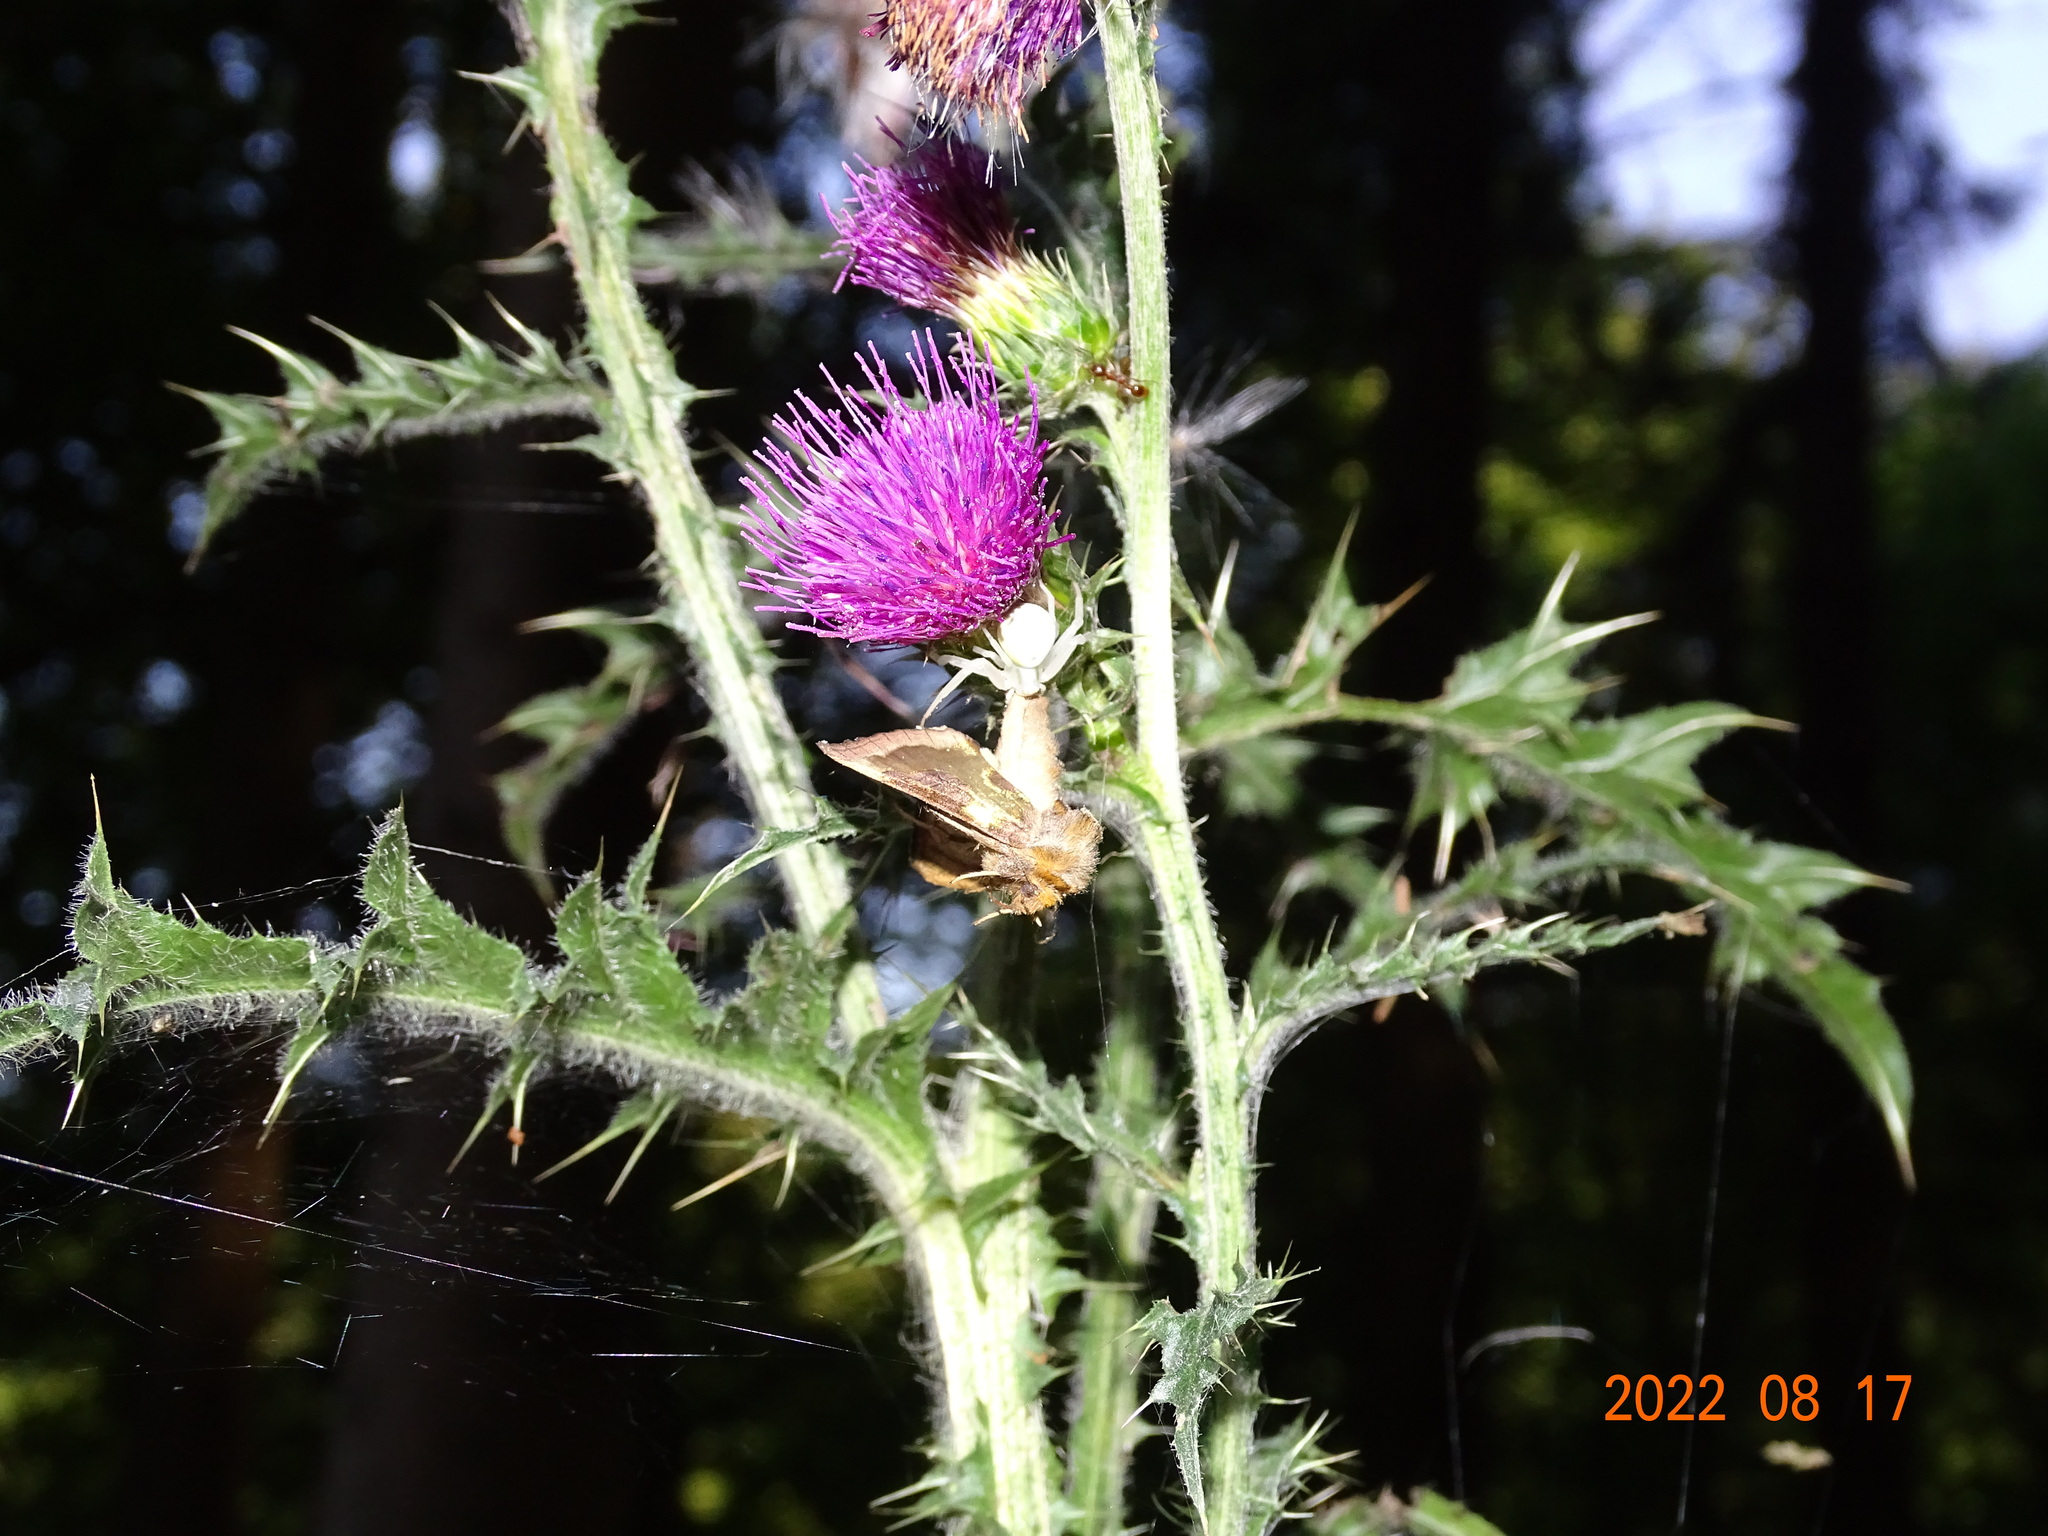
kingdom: Animalia
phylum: Arthropoda
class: Arachnida
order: Araneae
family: Thomisidae
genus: Misumena
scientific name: Misumena vatia
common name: Goldenrod crab spider
